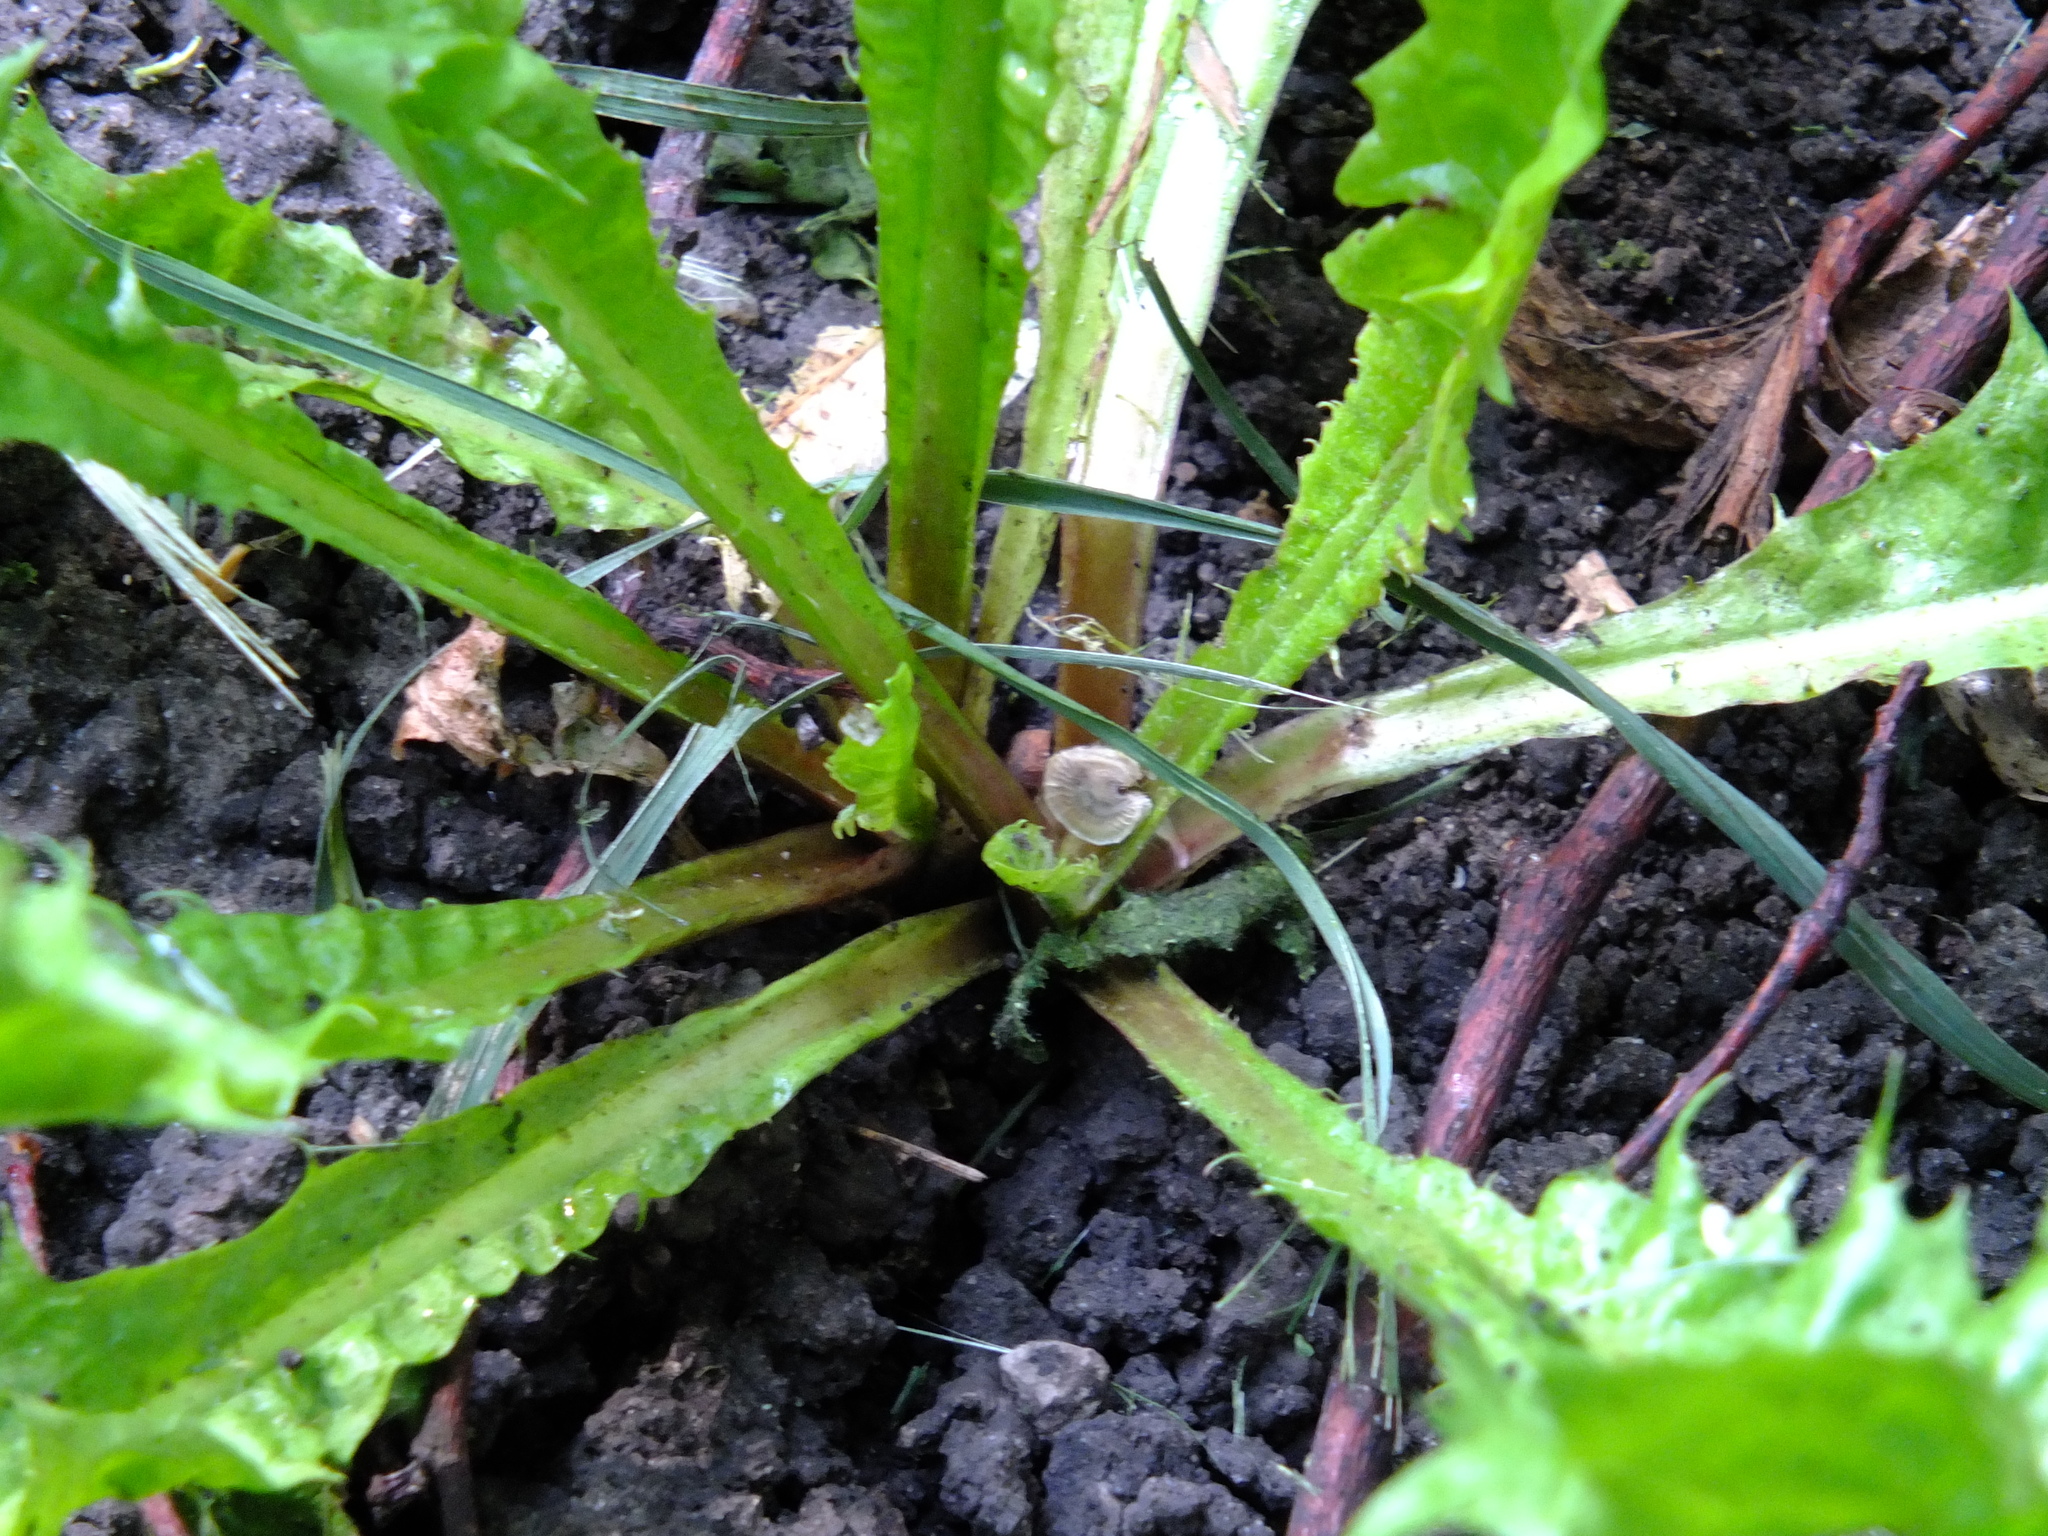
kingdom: Plantae
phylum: Tracheophyta
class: Magnoliopsida
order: Asterales
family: Asteraceae
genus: Taraxacum
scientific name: Taraxacum officinale
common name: Common dandelion
